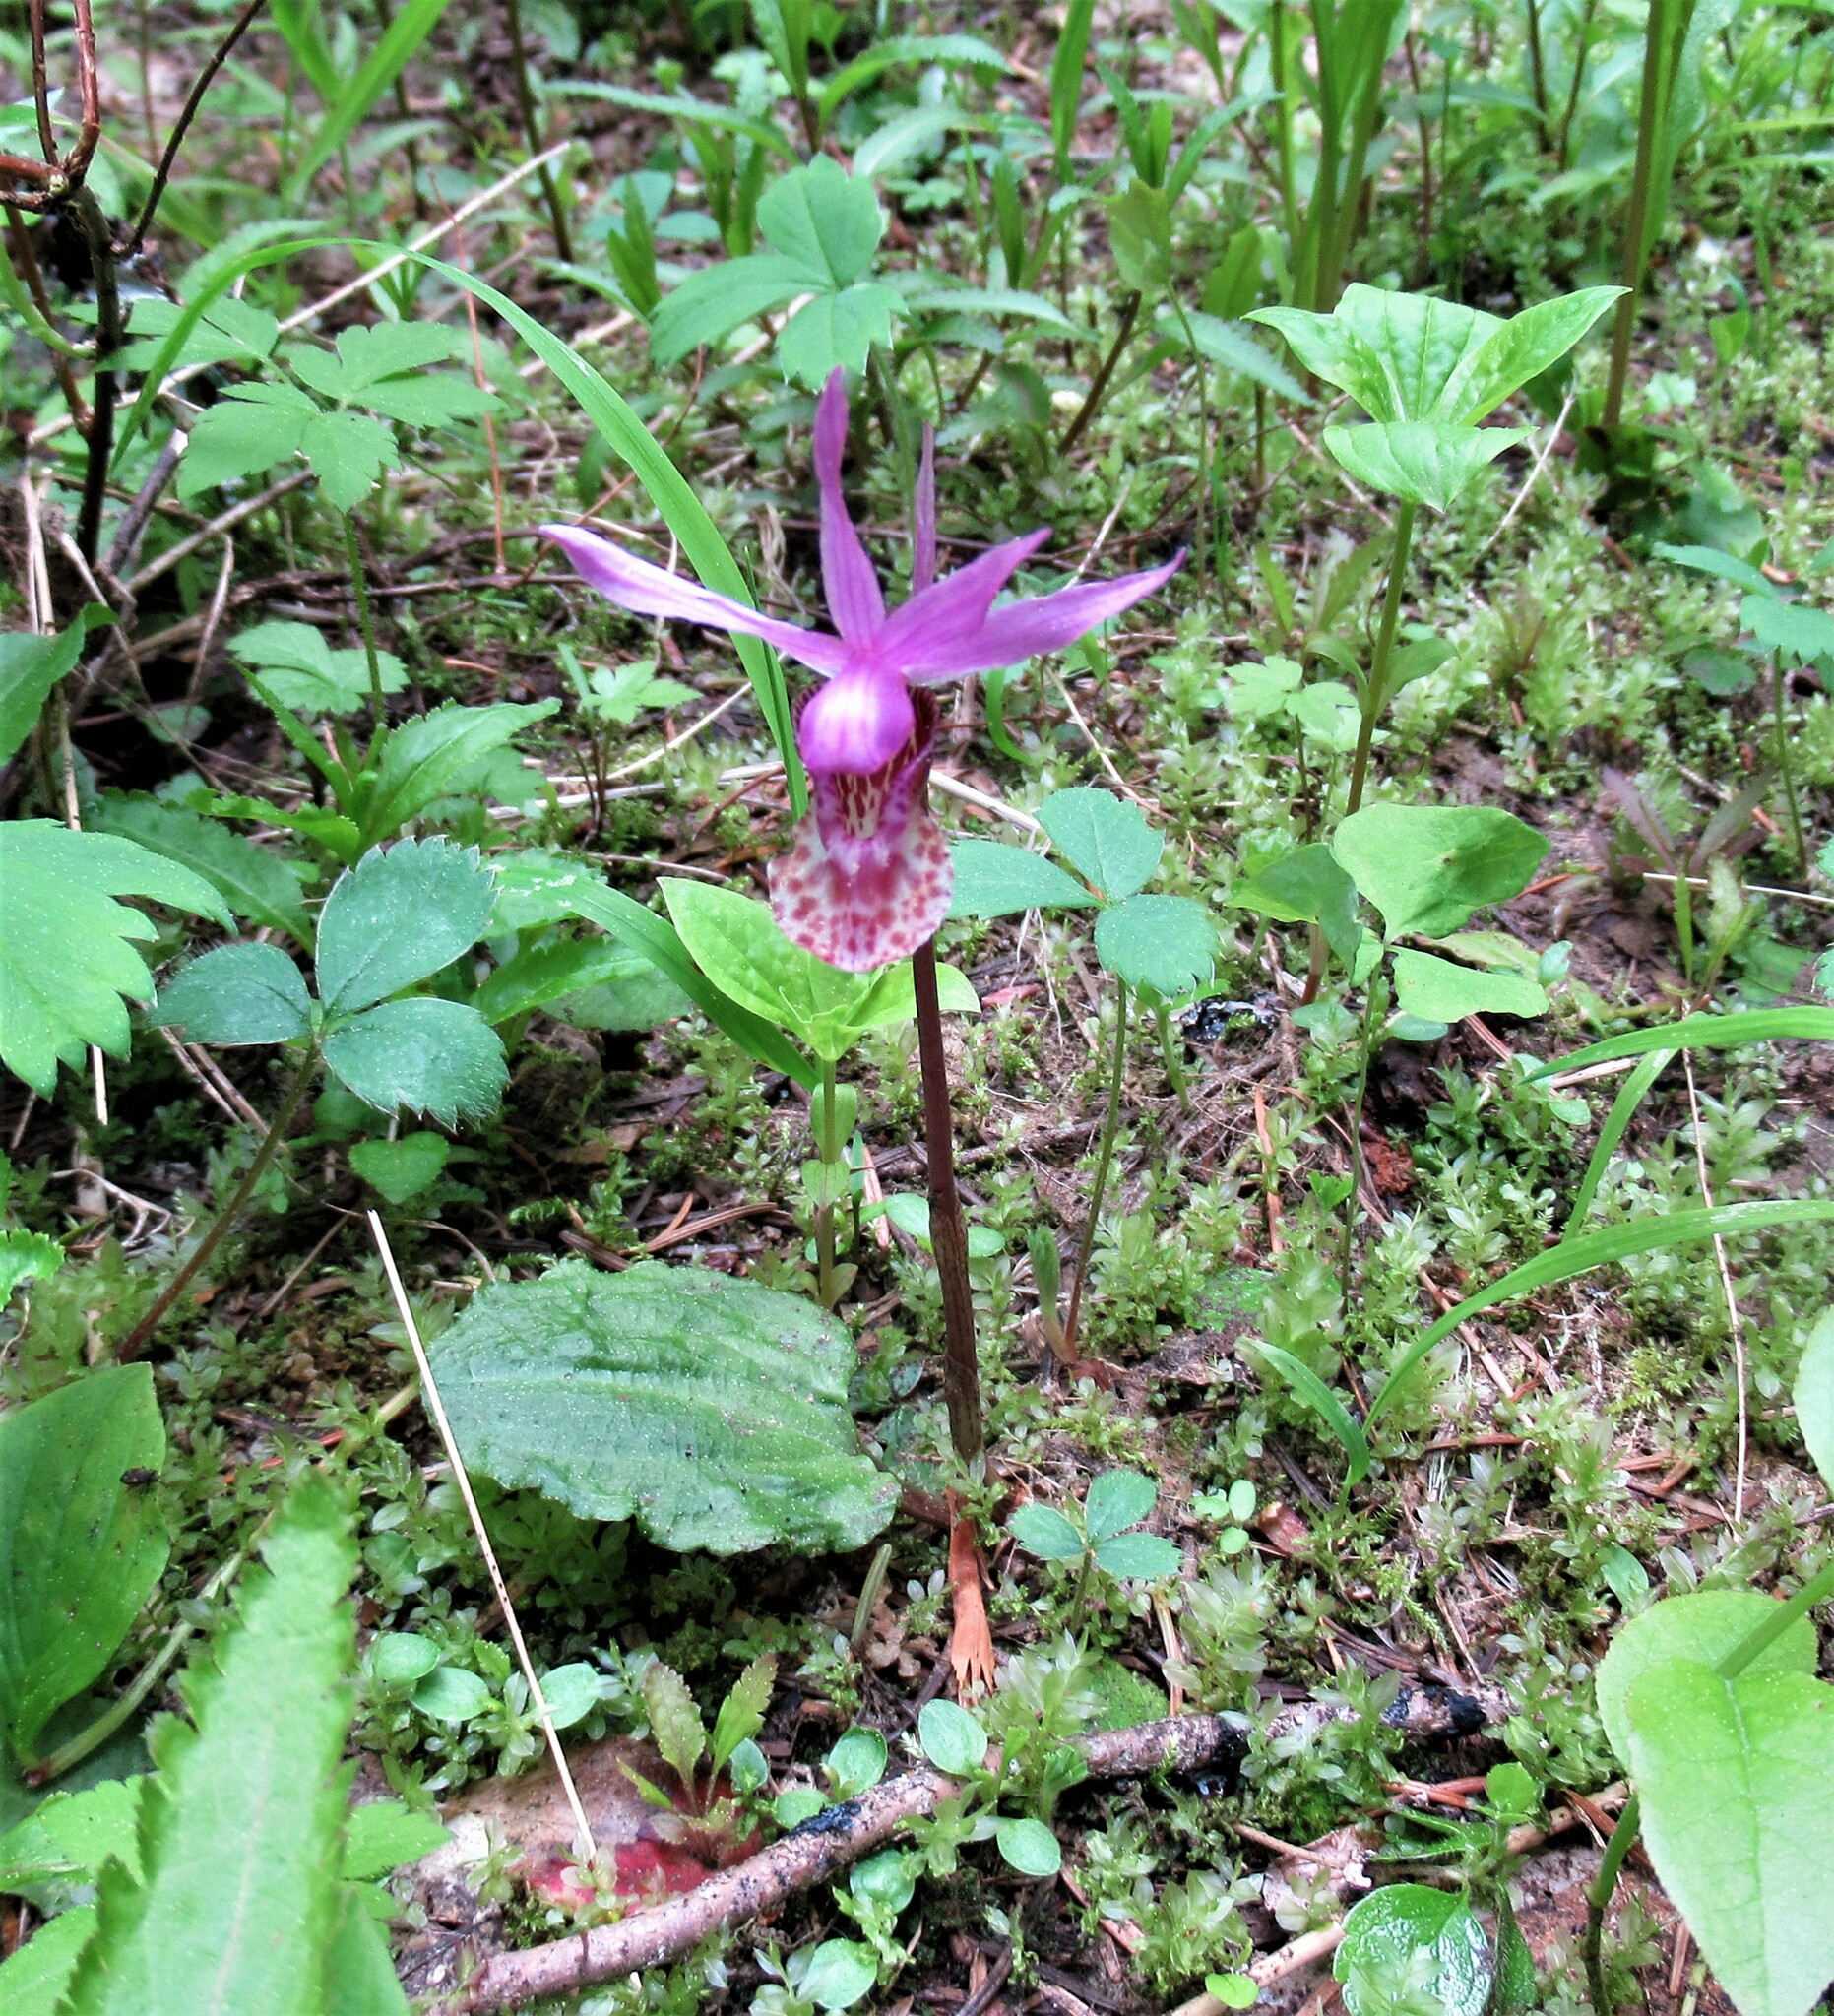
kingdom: Plantae
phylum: Tracheophyta
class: Liliopsida
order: Asparagales
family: Orchidaceae
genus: Calypso
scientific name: Calypso bulbosa
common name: Calypso
